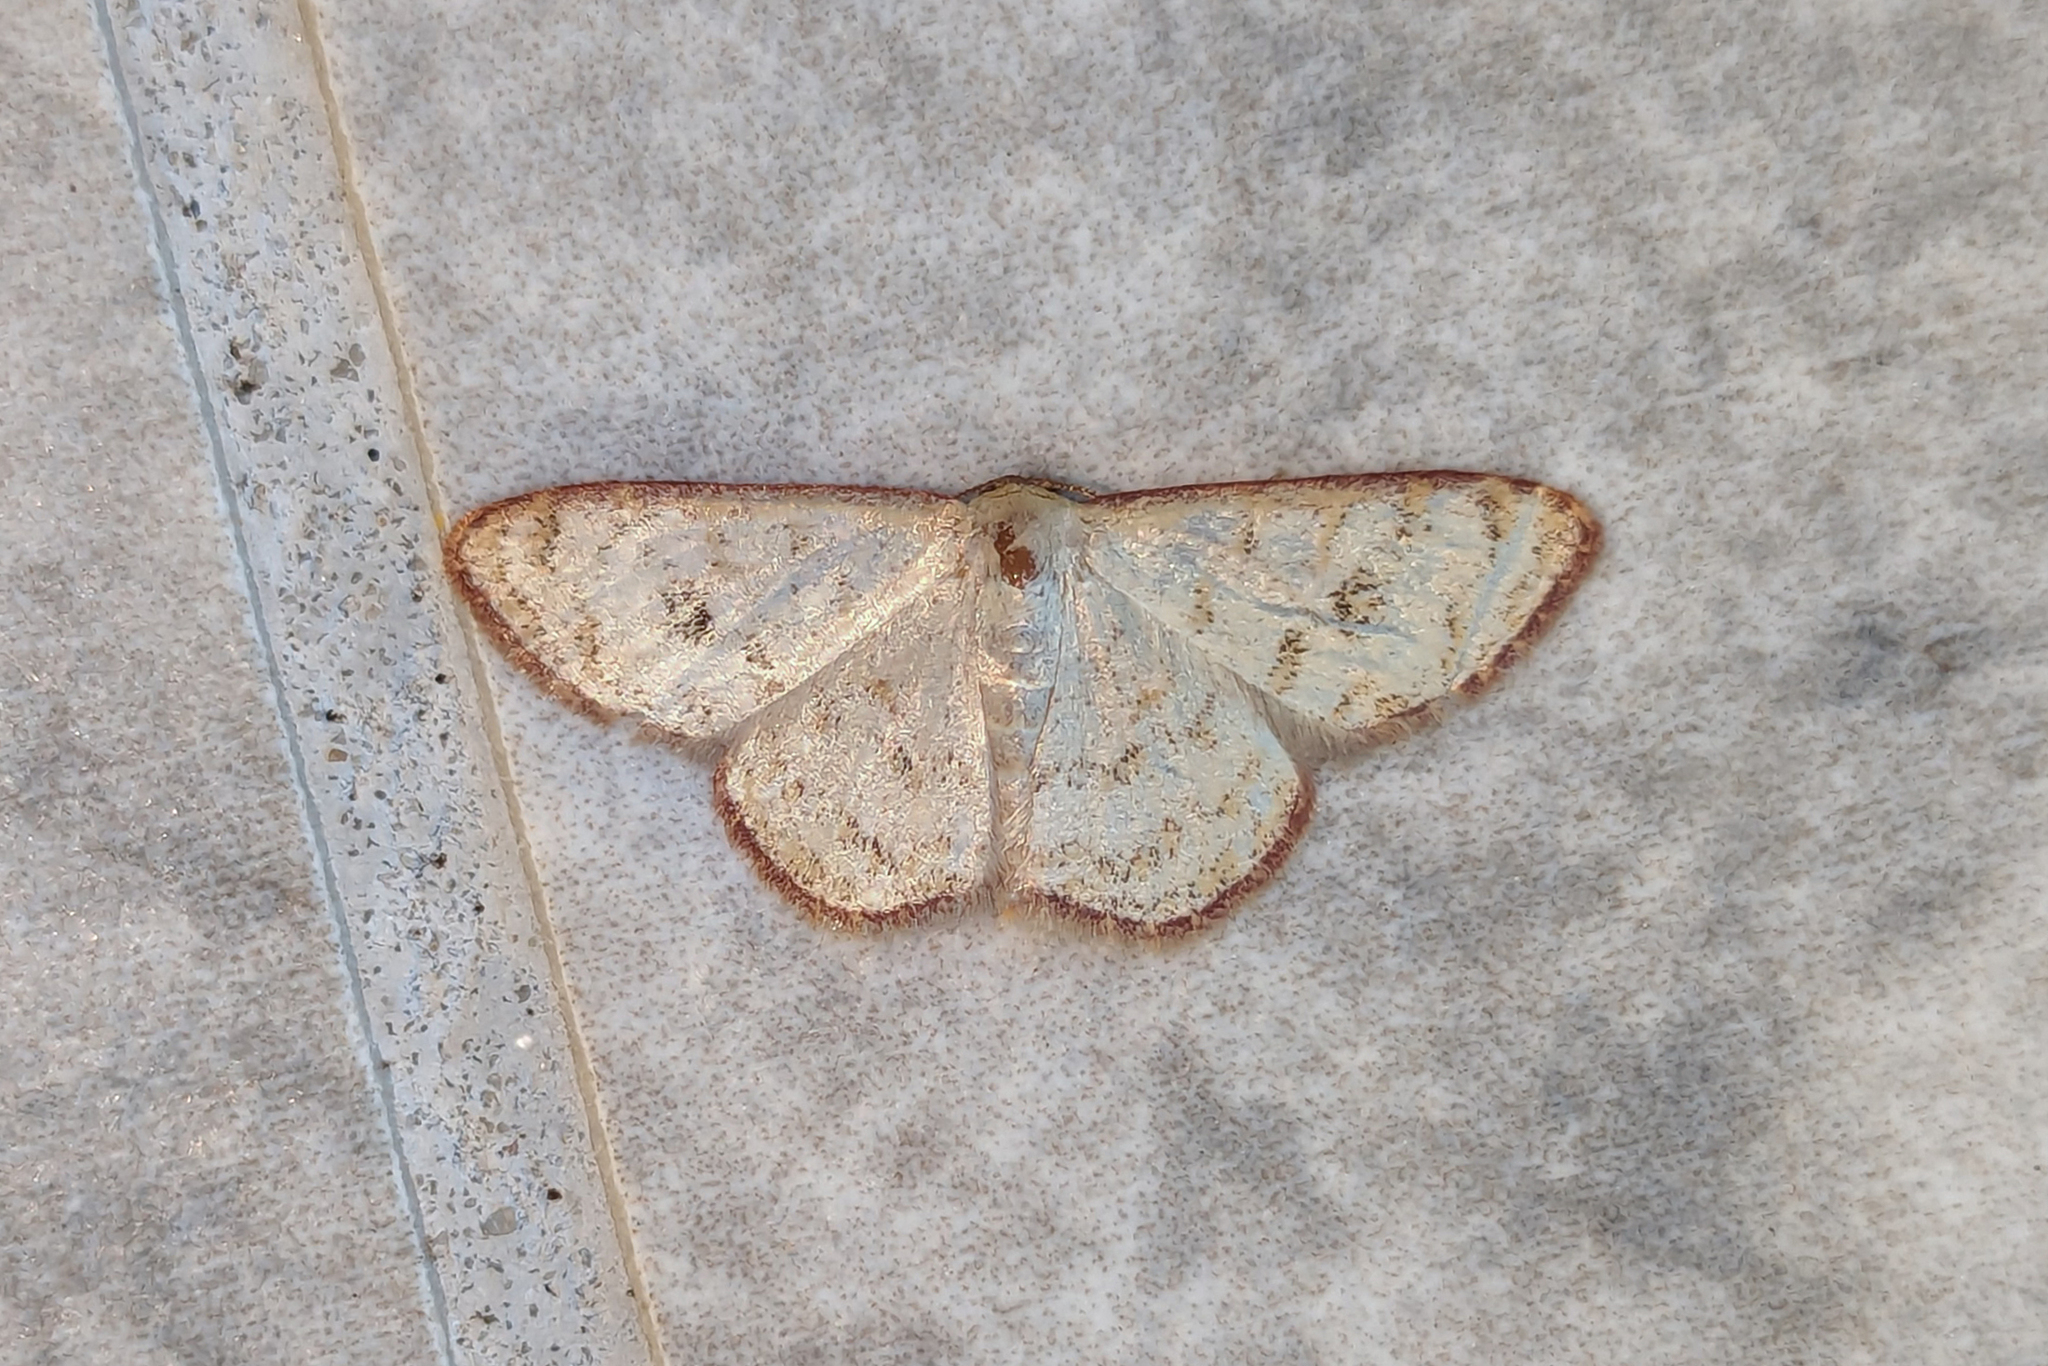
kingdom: Animalia
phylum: Arthropoda
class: Insecta
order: Lepidoptera
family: Geometridae
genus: Leptostales
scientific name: Leptostales pannaria
